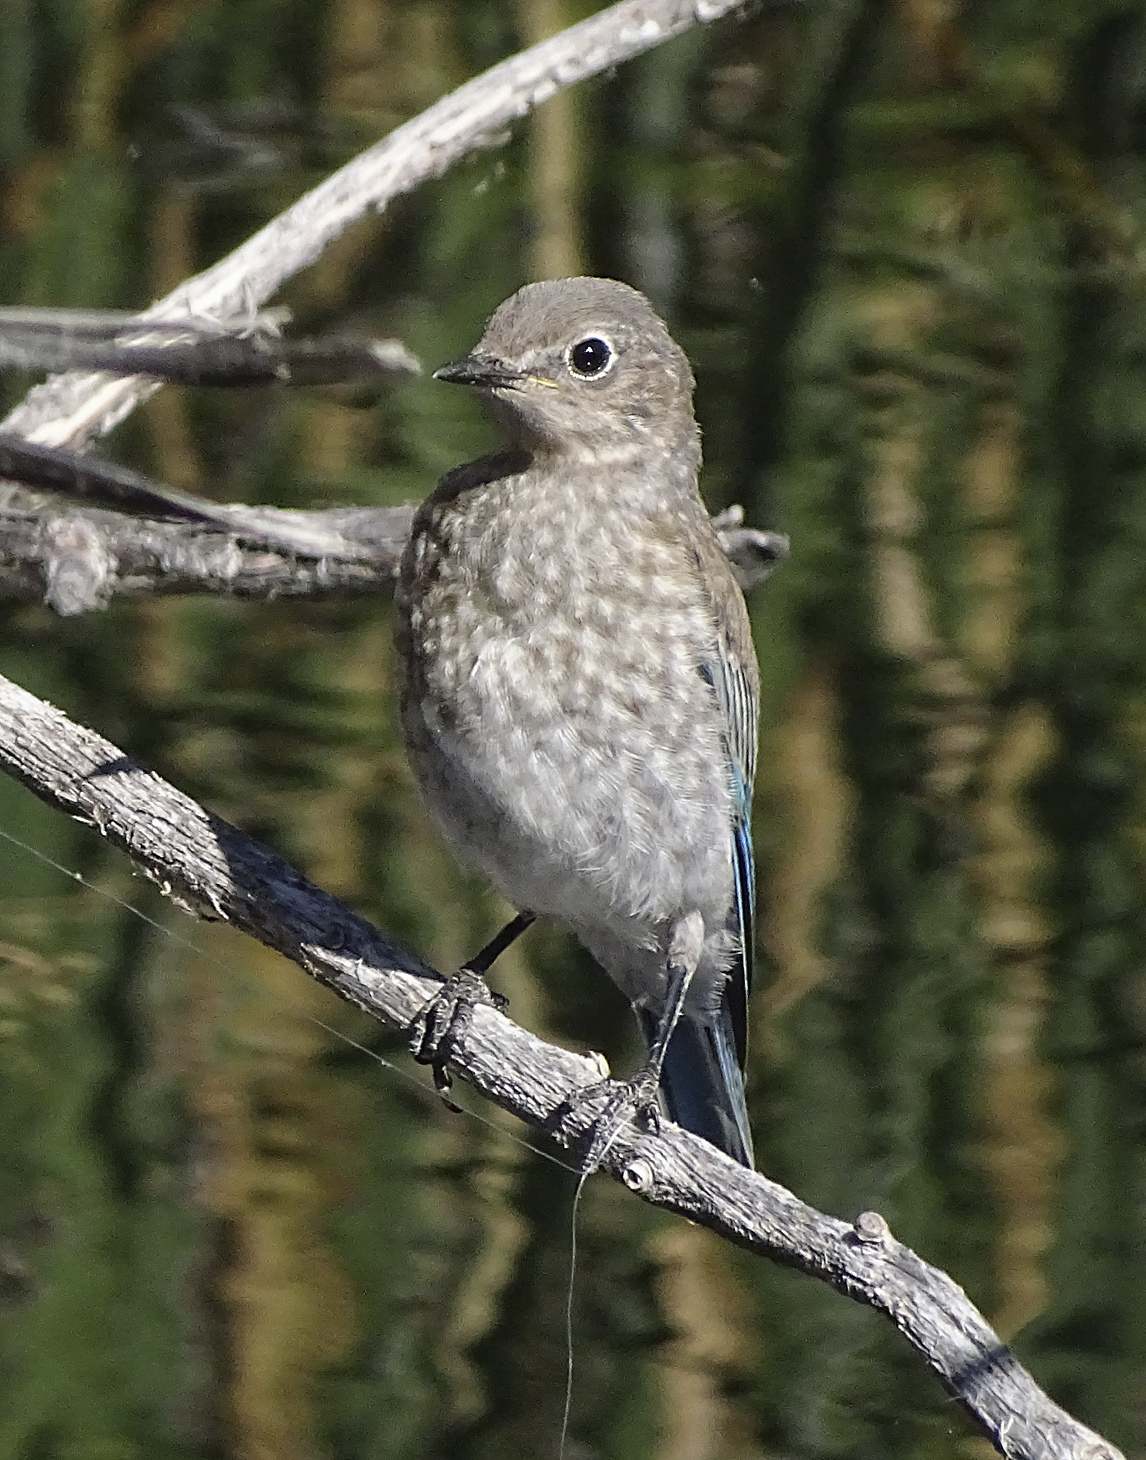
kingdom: Animalia
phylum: Chordata
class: Aves
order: Passeriformes
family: Turdidae
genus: Sialia
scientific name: Sialia currucoides
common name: Mountain bluebird
